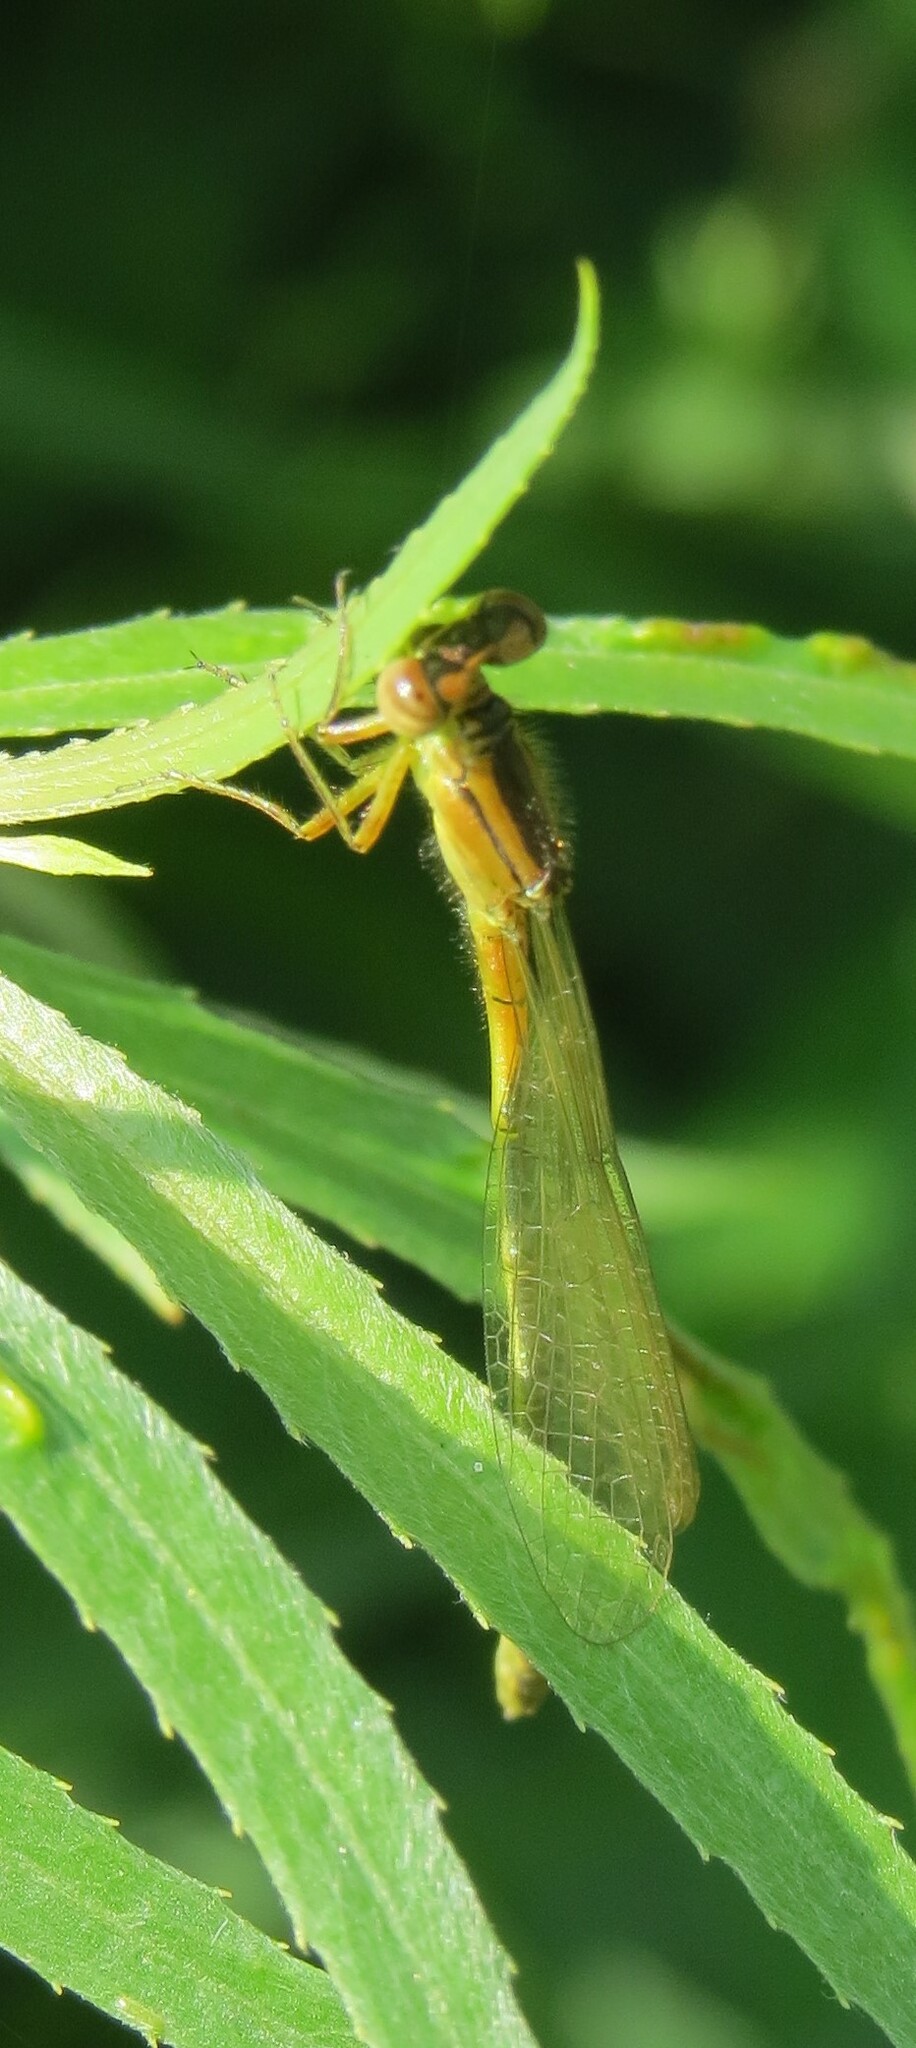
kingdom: Animalia
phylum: Arthropoda
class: Insecta
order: Odonata
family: Coenagrionidae
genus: Ischnura
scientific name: Ischnura verticalis
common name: Eastern forktail
